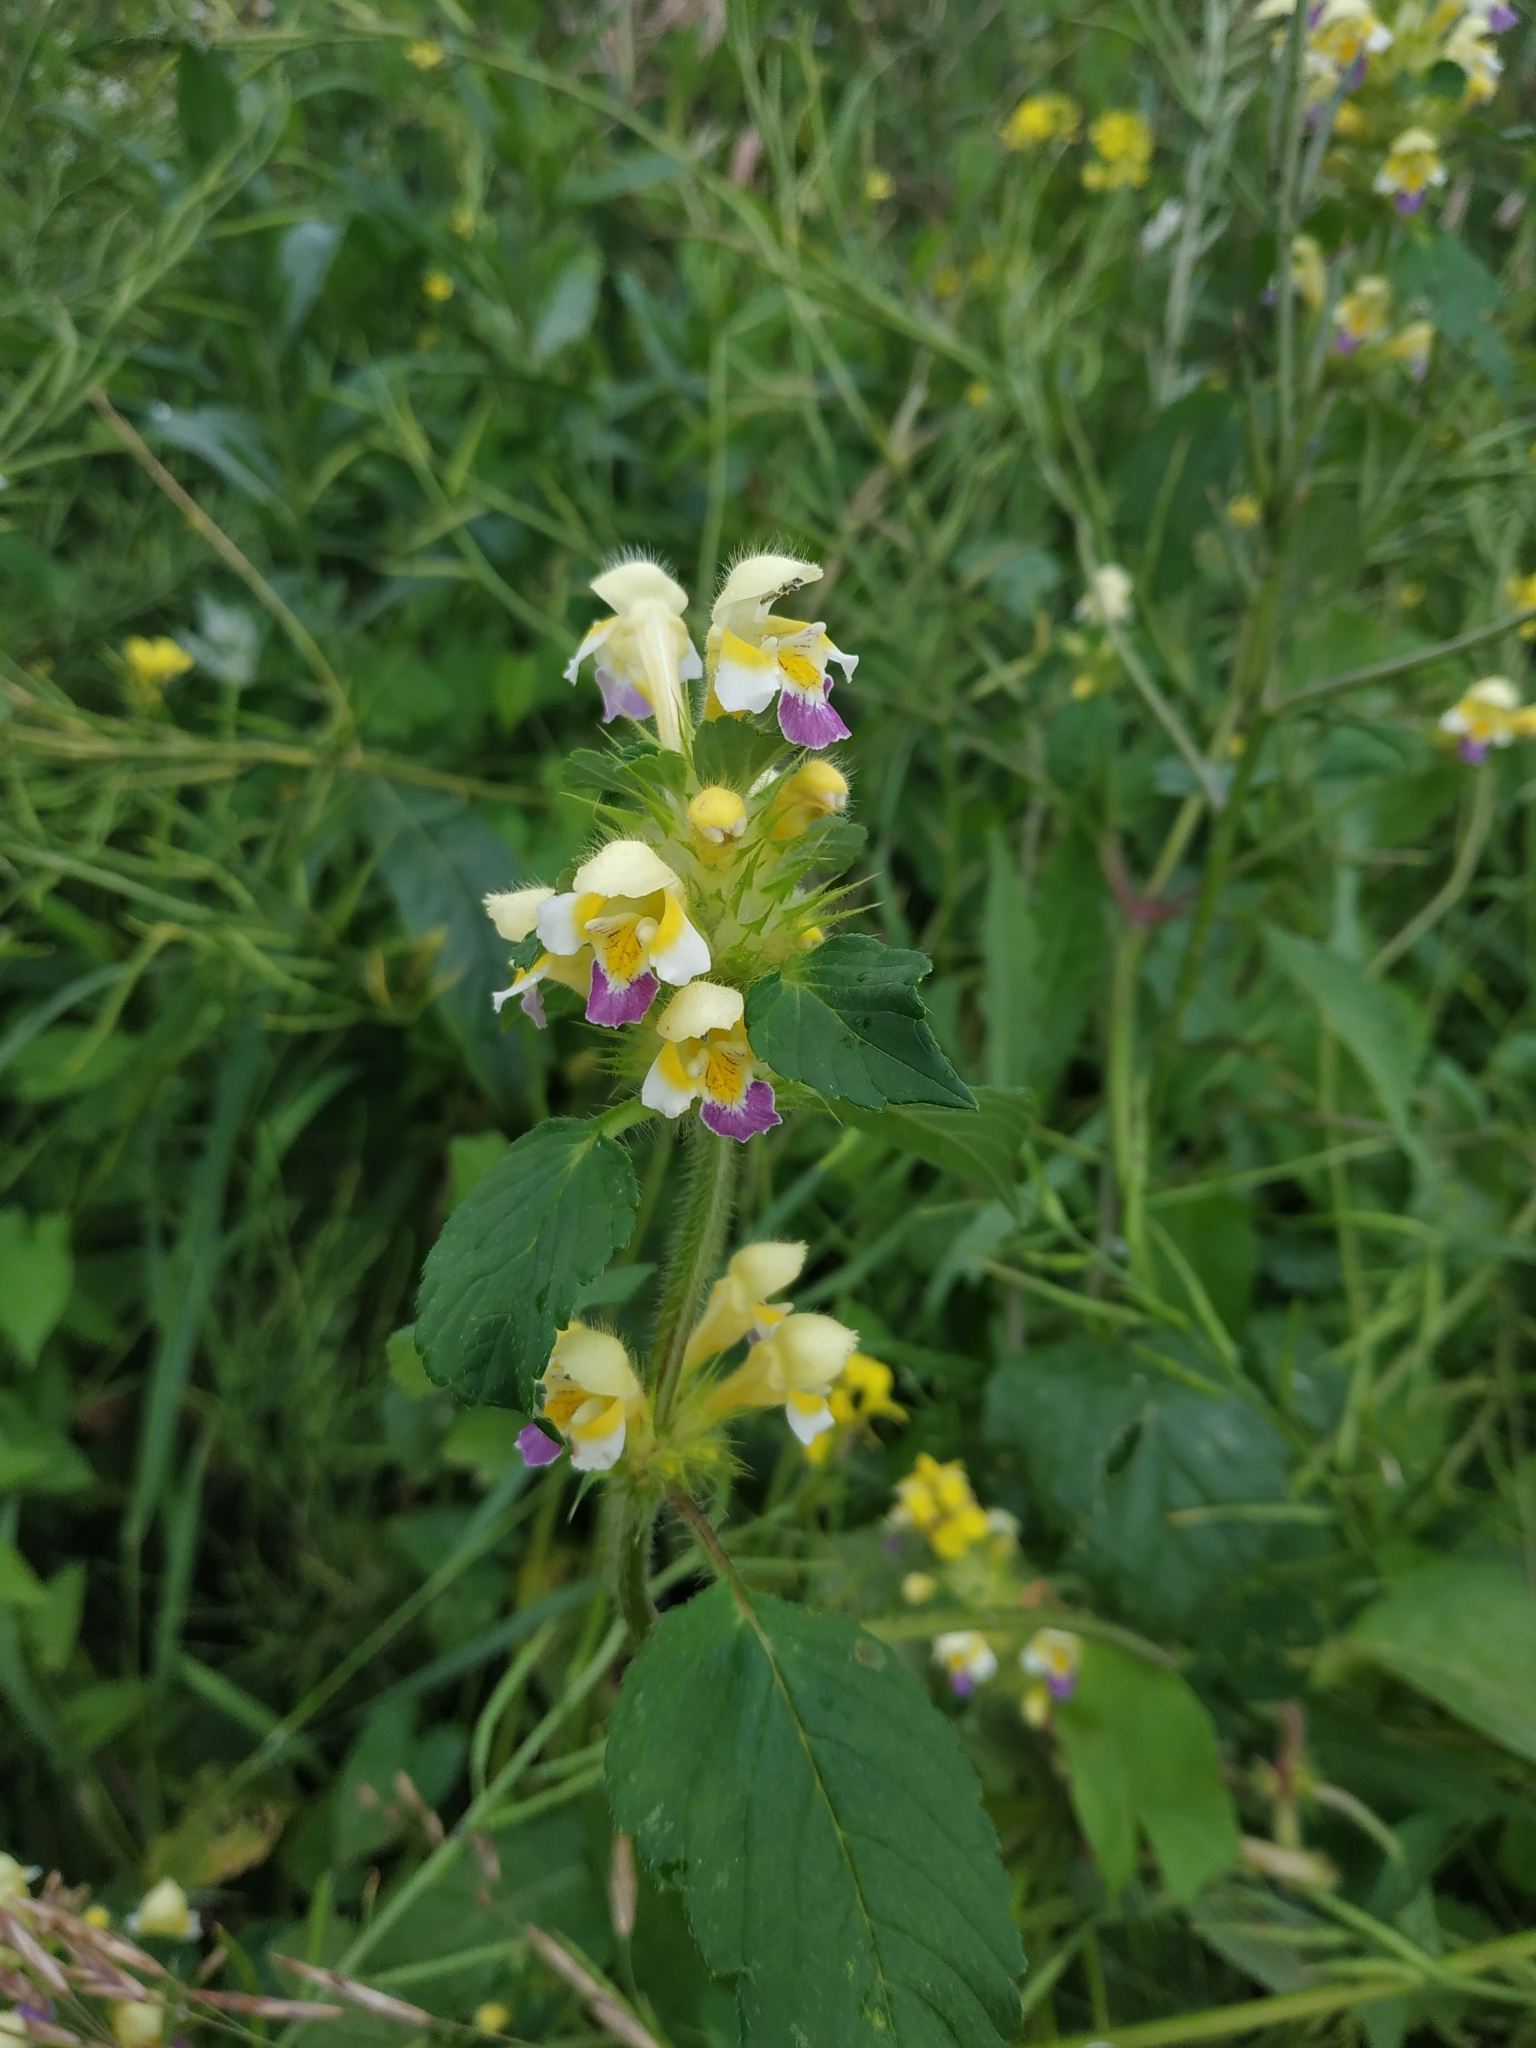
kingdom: Plantae
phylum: Tracheophyta
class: Magnoliopsida
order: Lamiales
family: Lamiaceae
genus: Galeopsis
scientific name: Galeopsis speciosa
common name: Large-flowered hemp-nettle
